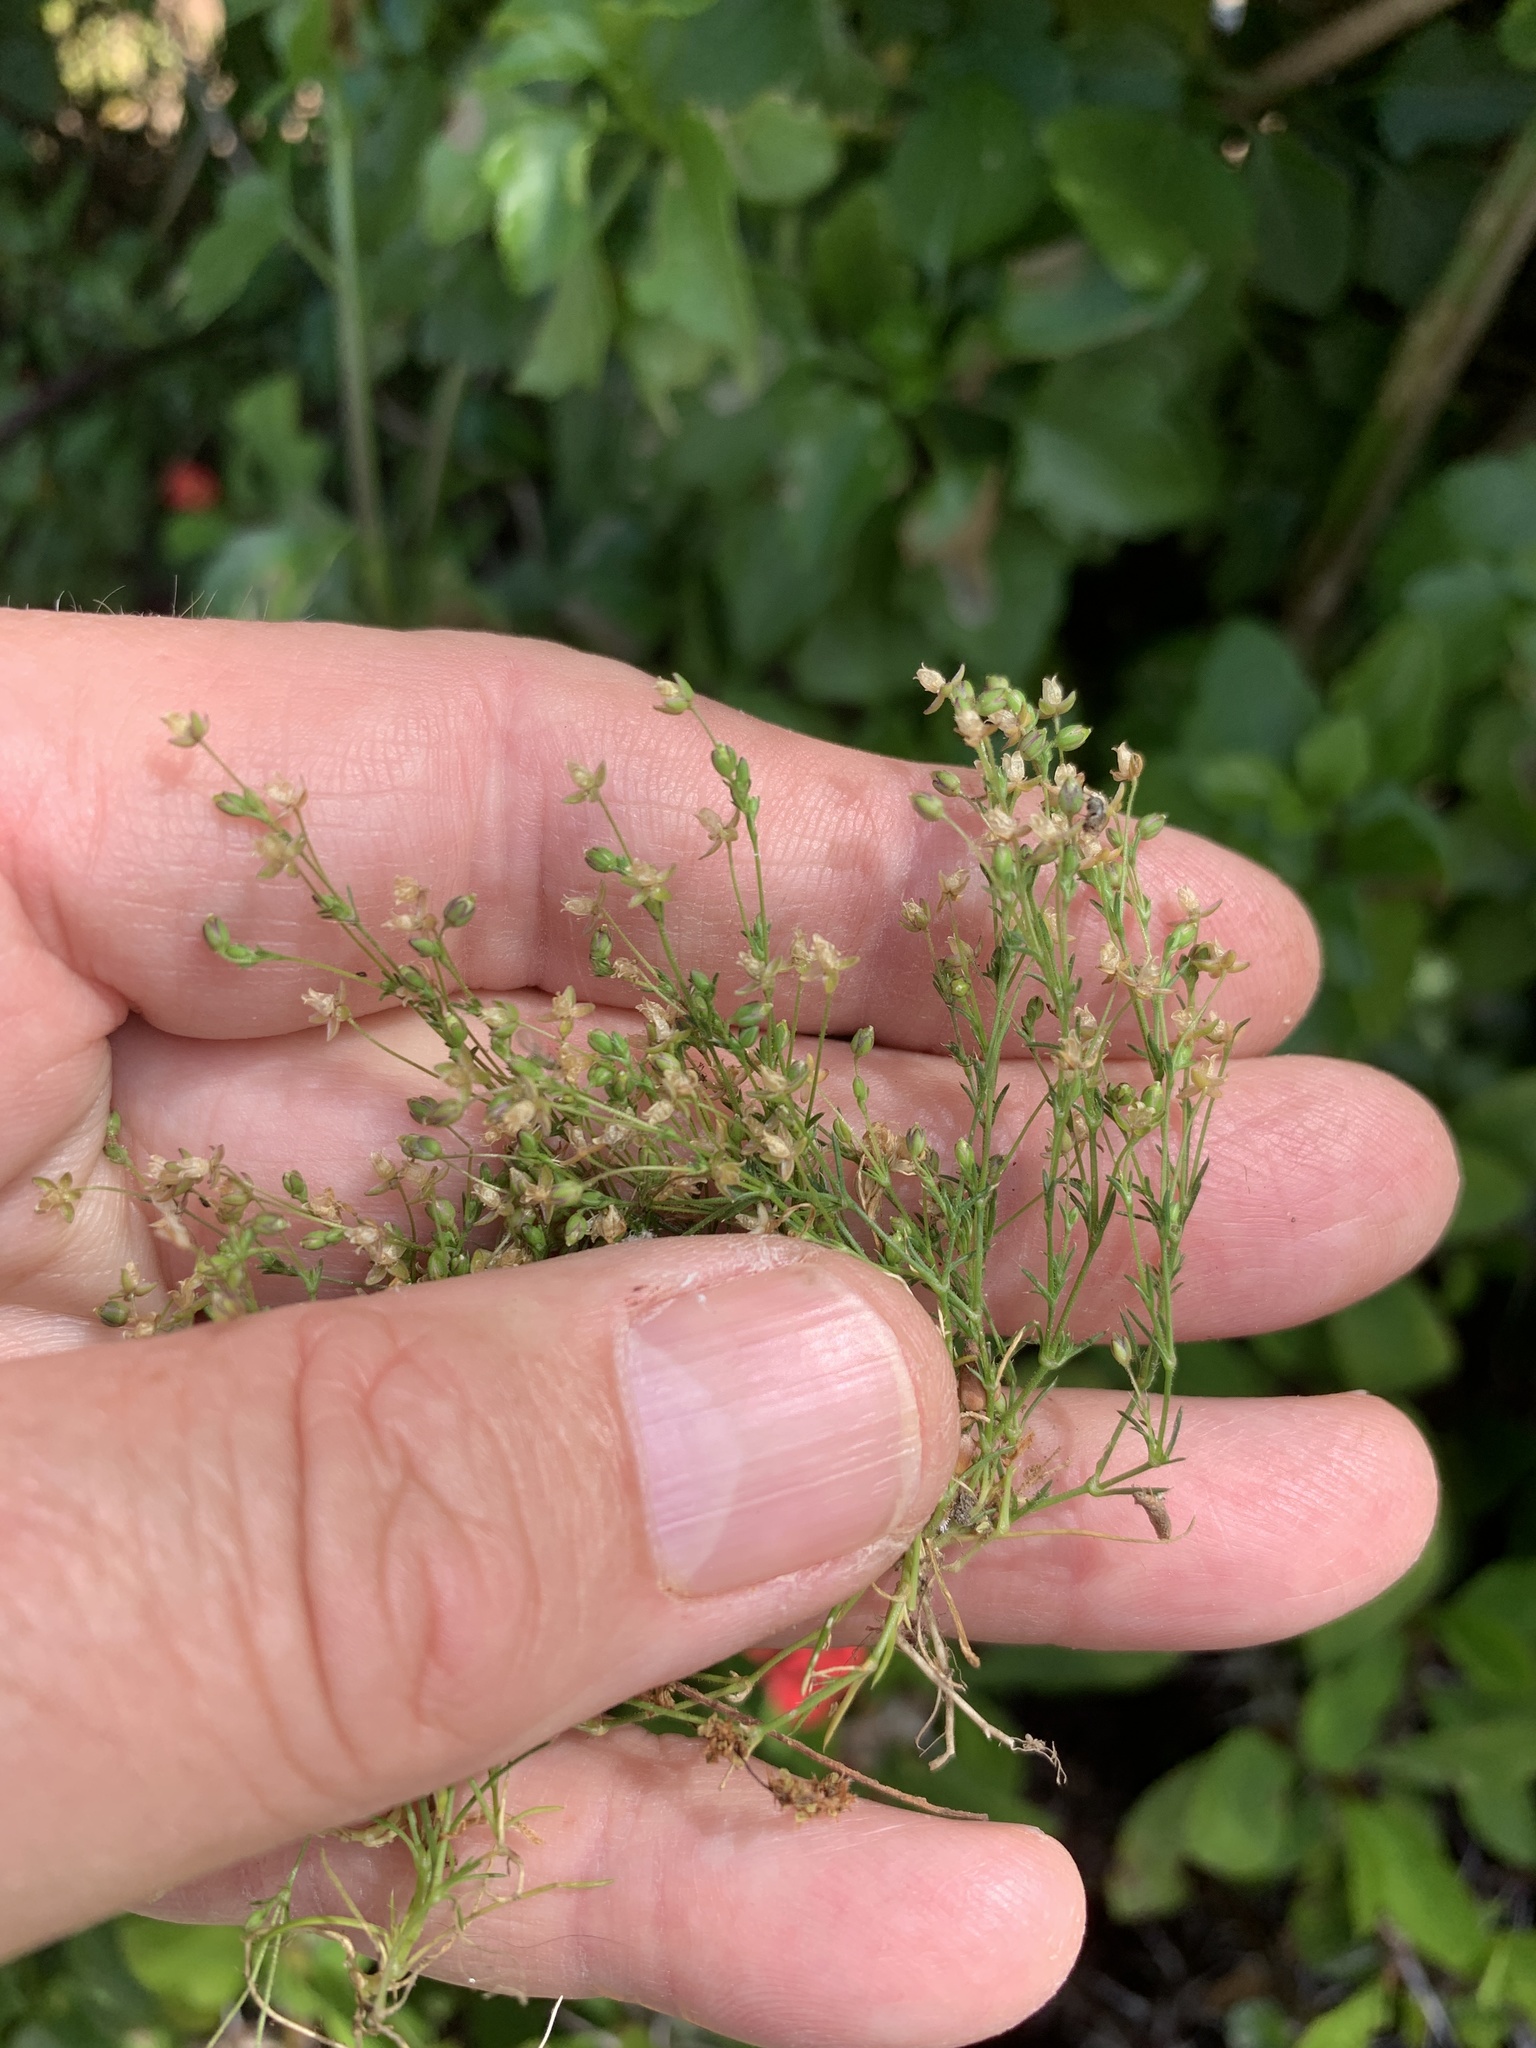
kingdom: Plantae
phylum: Tracheophyta
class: Magnoliopsida
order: Caryophyllales
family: Caryophyllaceae
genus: Sagina
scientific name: Sagina micropetala
